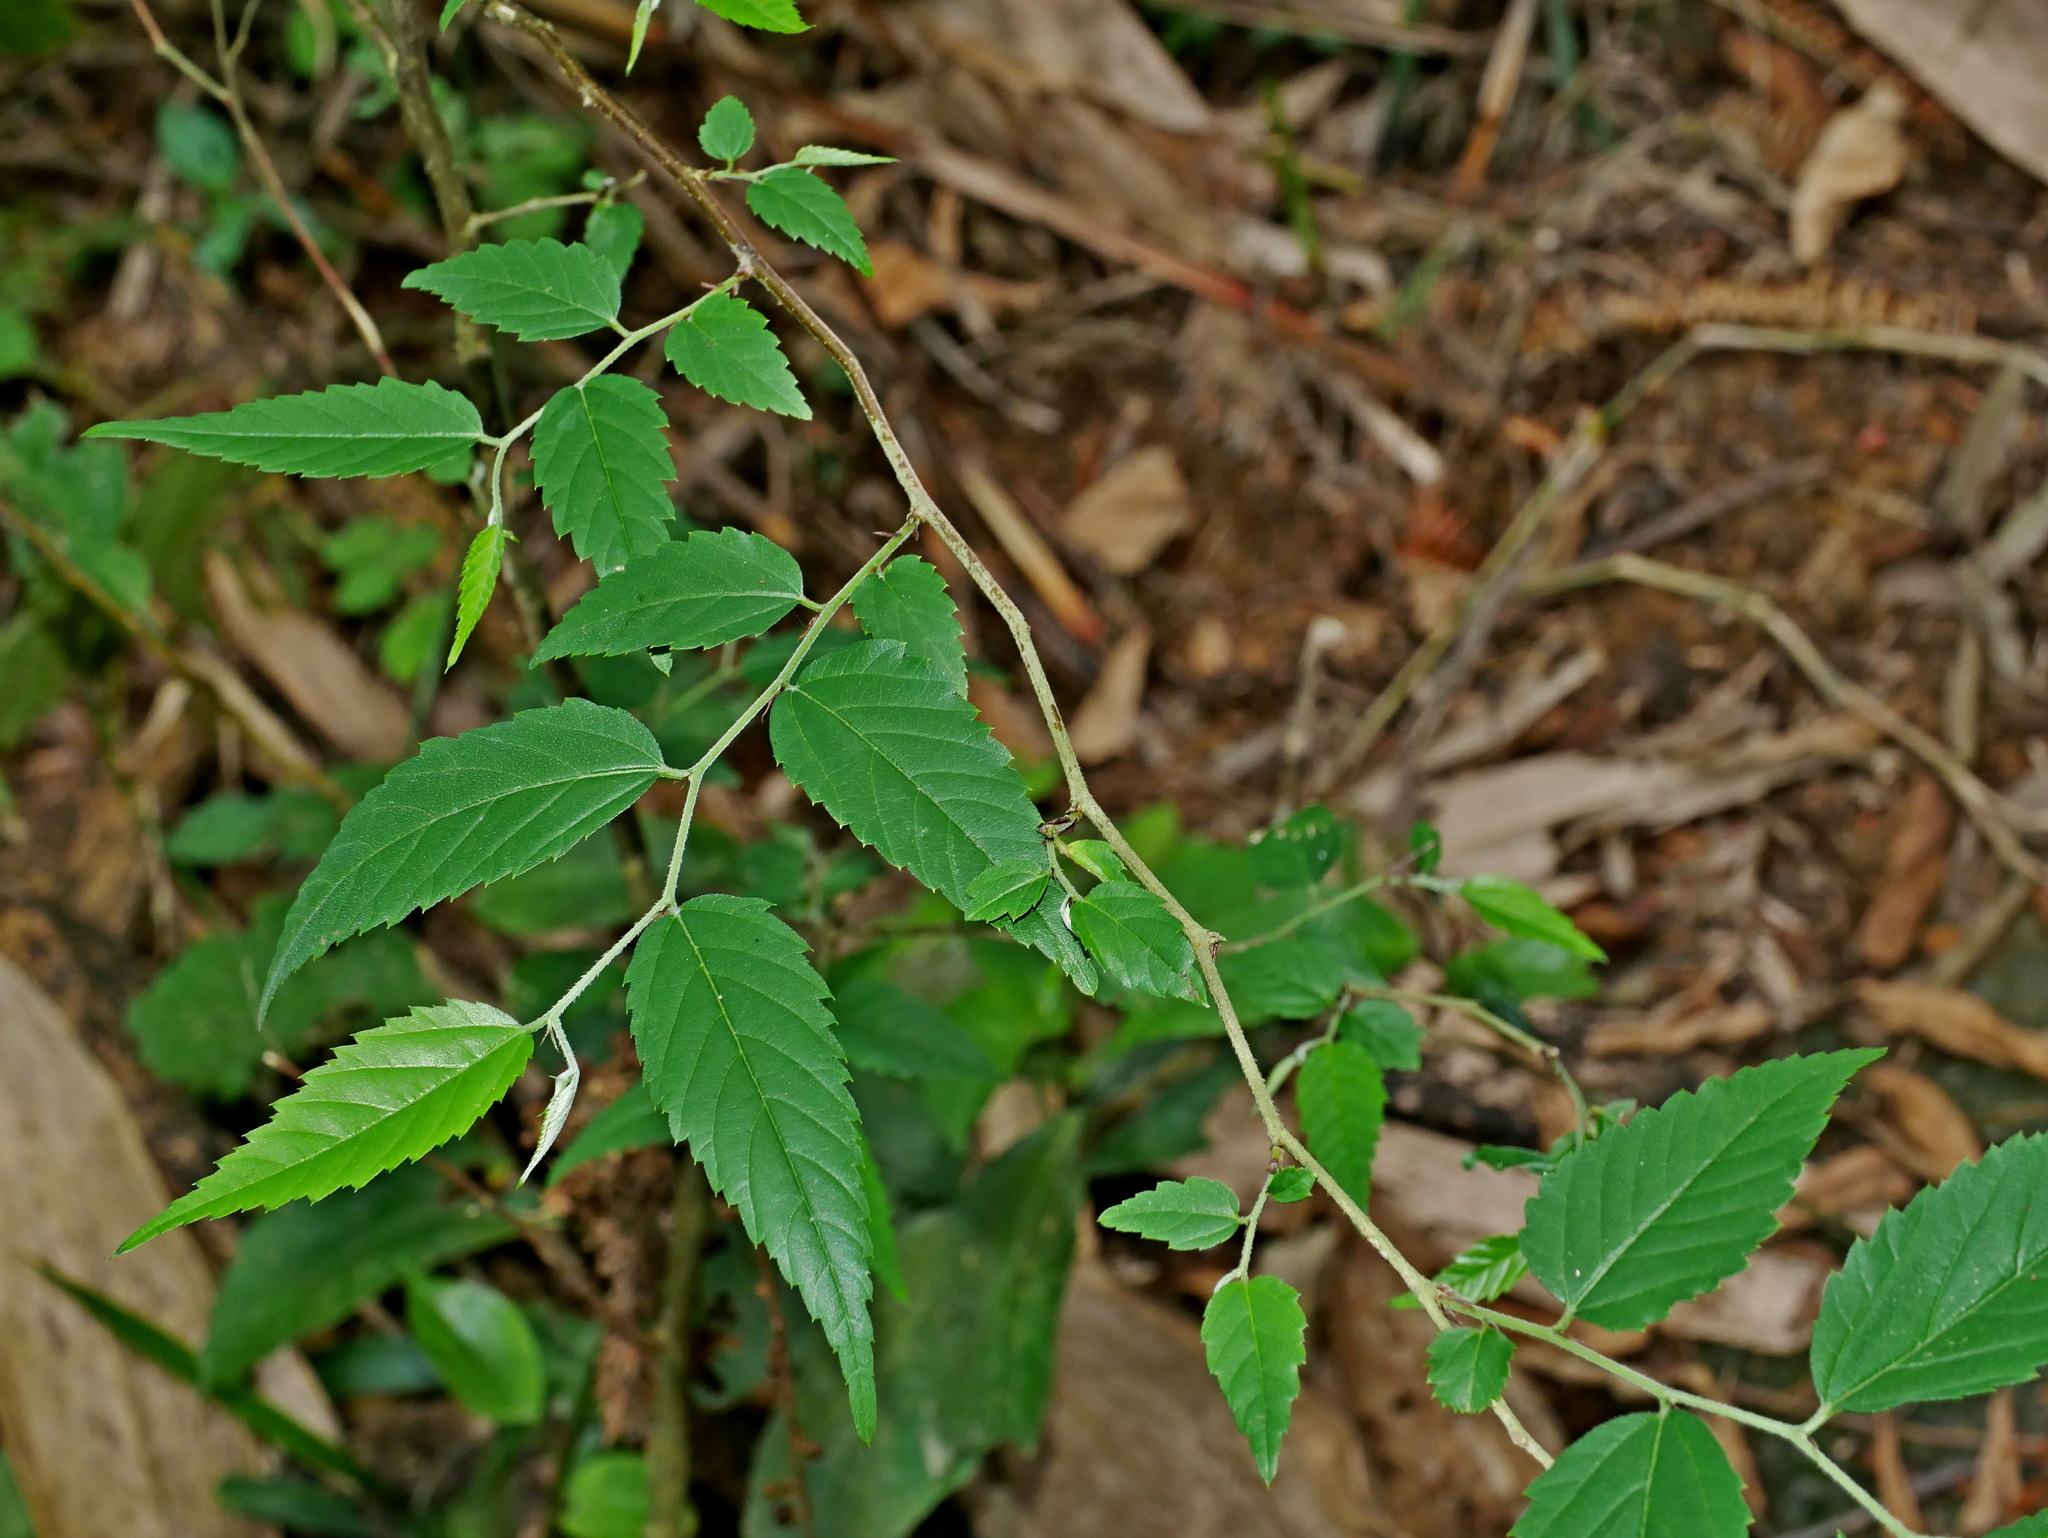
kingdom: Plantae
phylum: Tracheophyta
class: Magnoliopsida
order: Rosales
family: Cannabaceae
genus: Aphananthe
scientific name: Aphananthe aspera
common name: Mukutree
